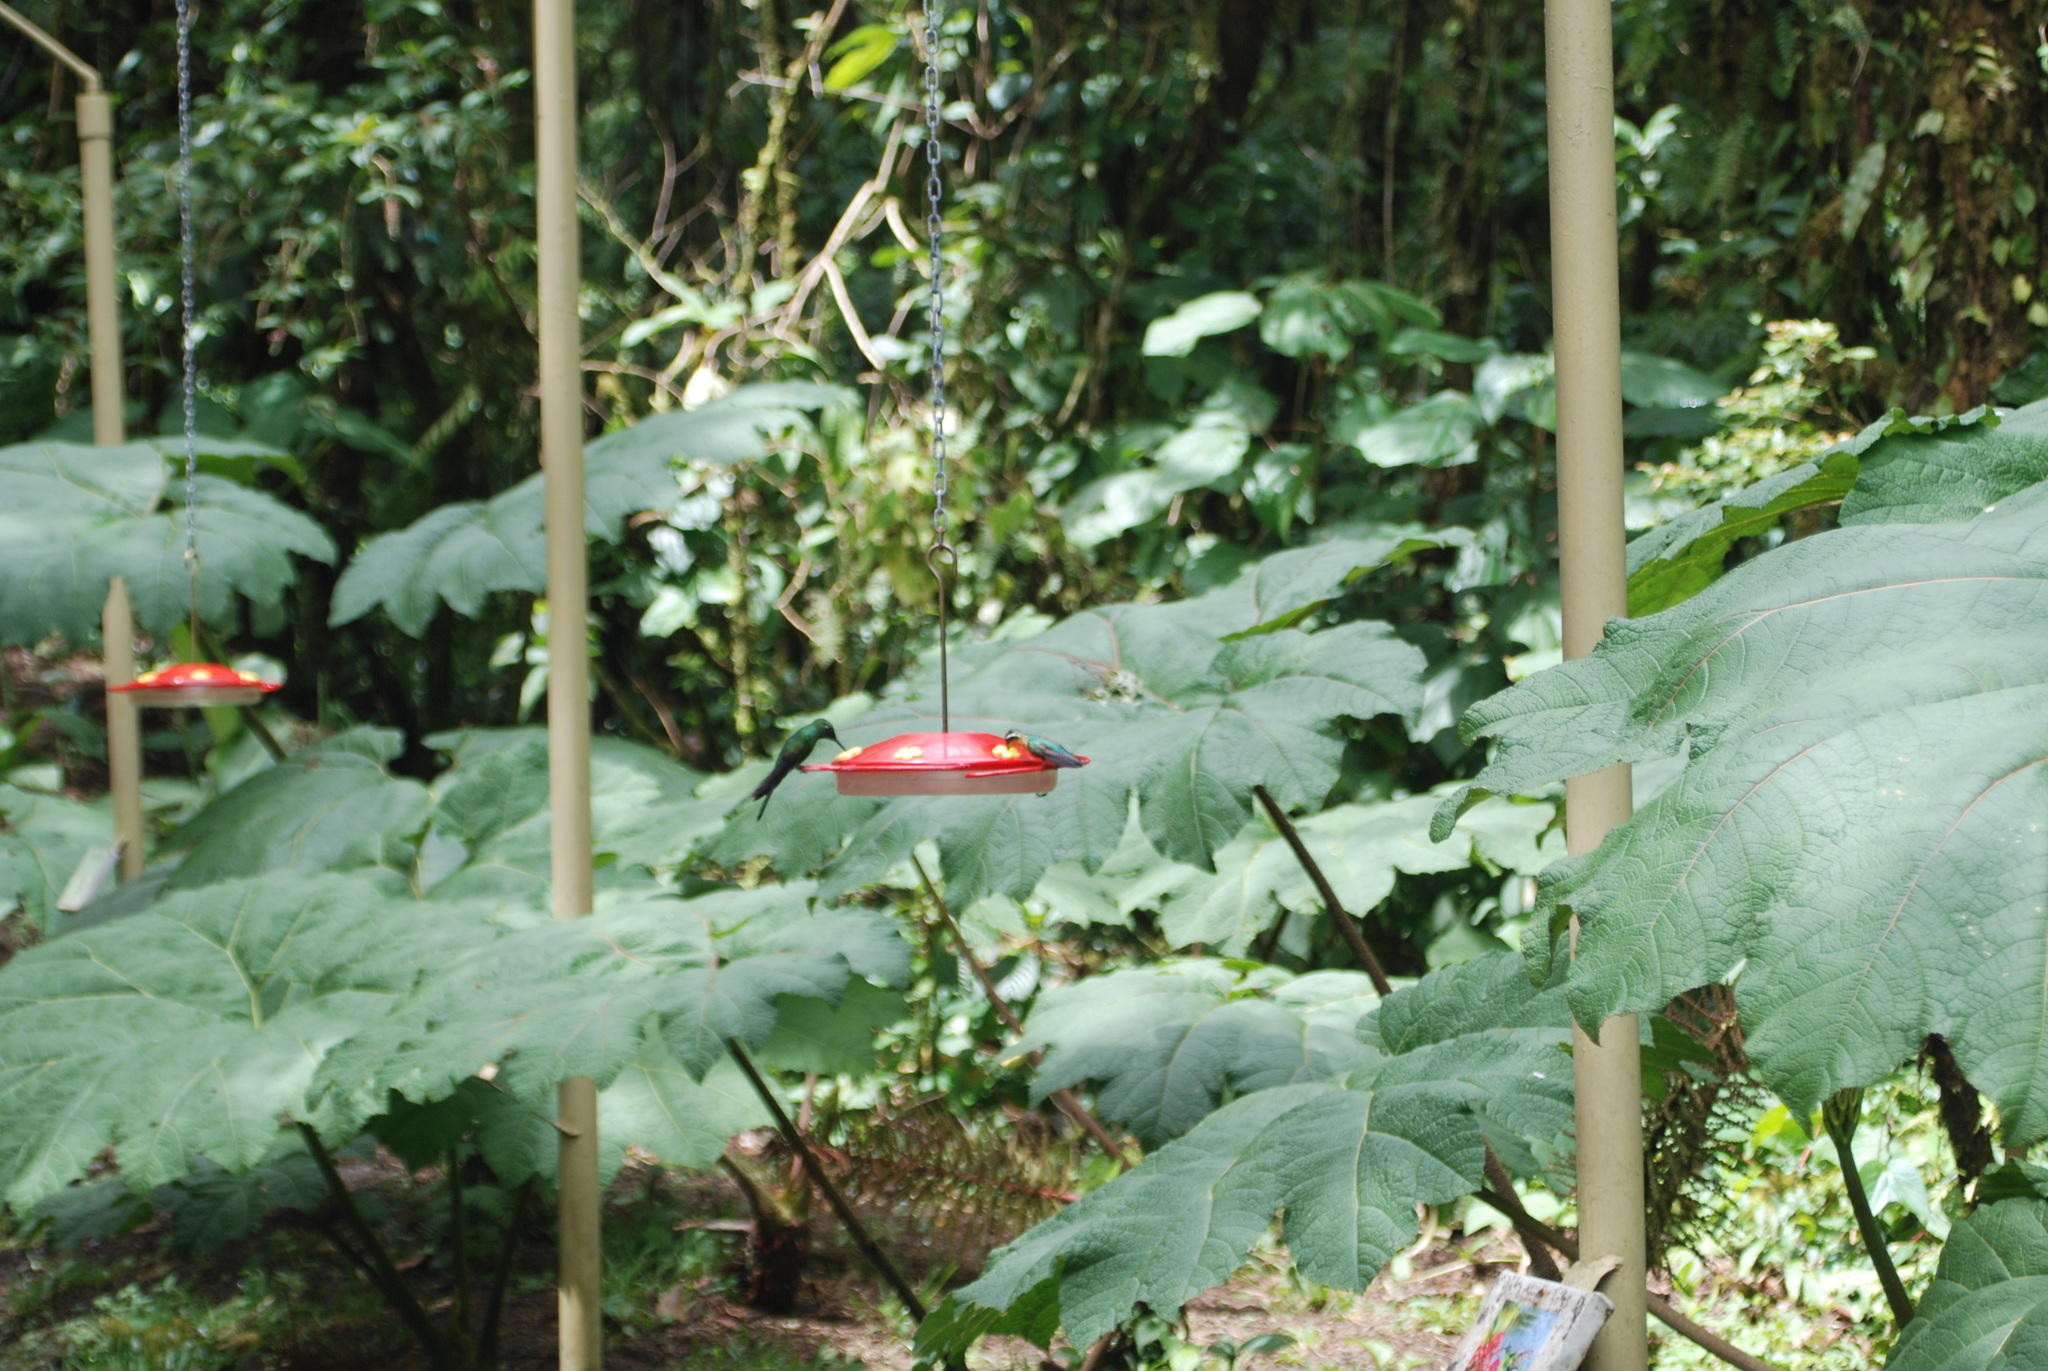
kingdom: Animalia
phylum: Chordata
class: Aves
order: Apodiformes
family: Trochilidae
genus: Lampornis
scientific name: Lampornis calolaemus
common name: Purple-throated mountain-gem
